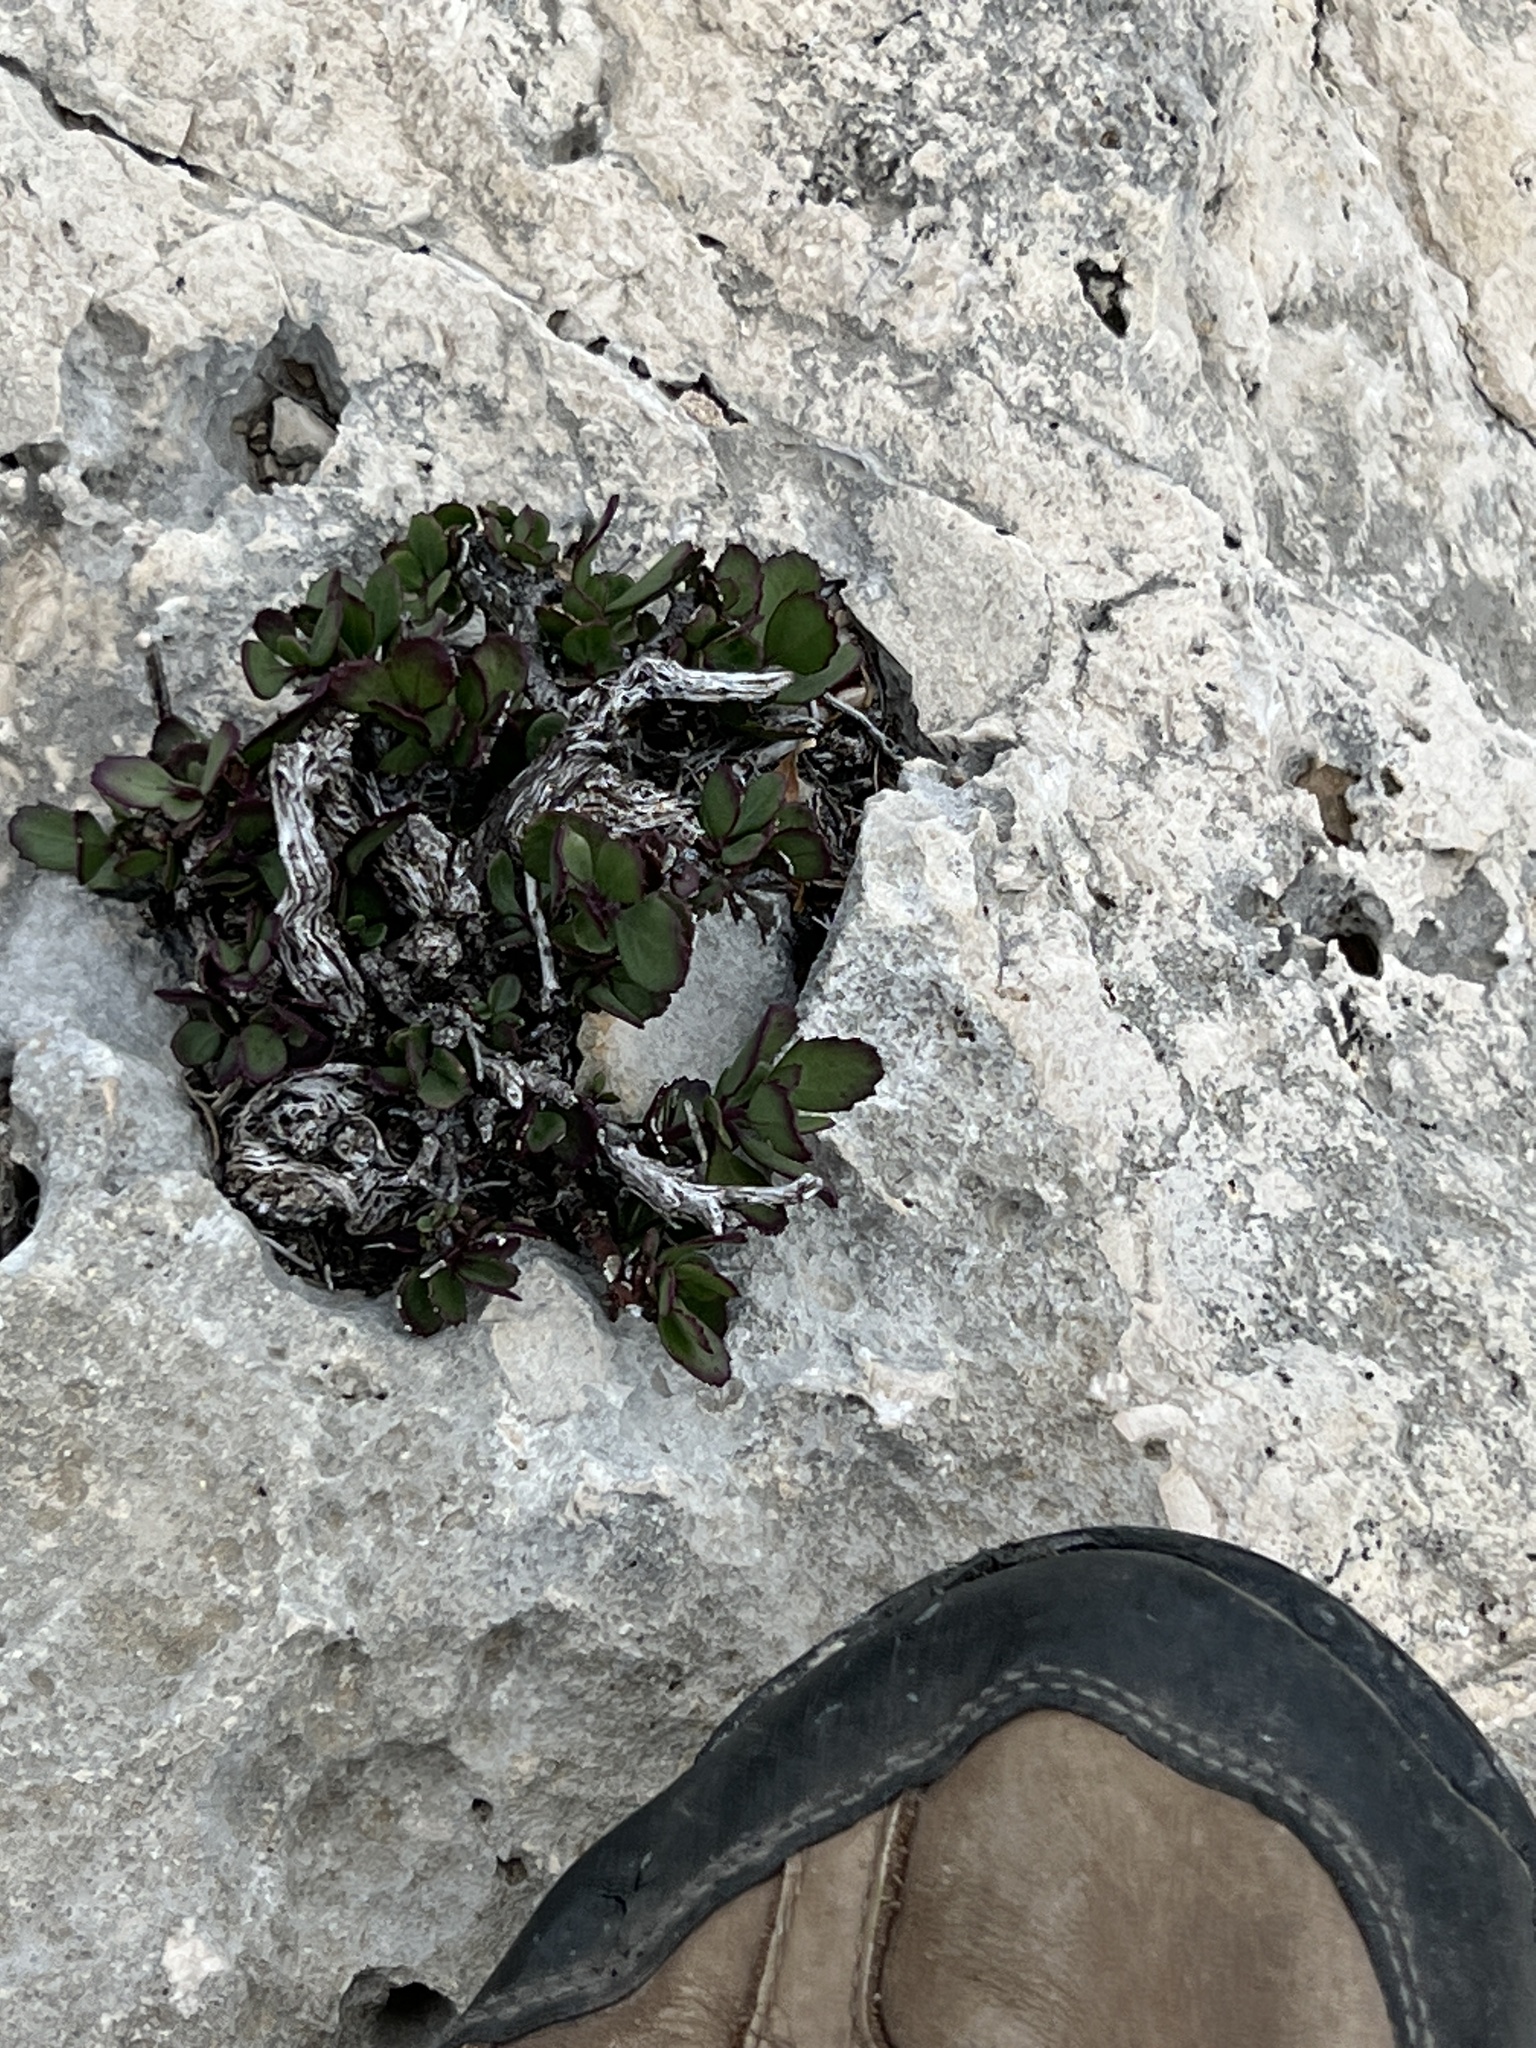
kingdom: Plantae
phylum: Tracheophyta
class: Magnoliopsida
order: Lamiales
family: Plantaginaceae
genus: Penstemon
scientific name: Penstemon baccharifolius
